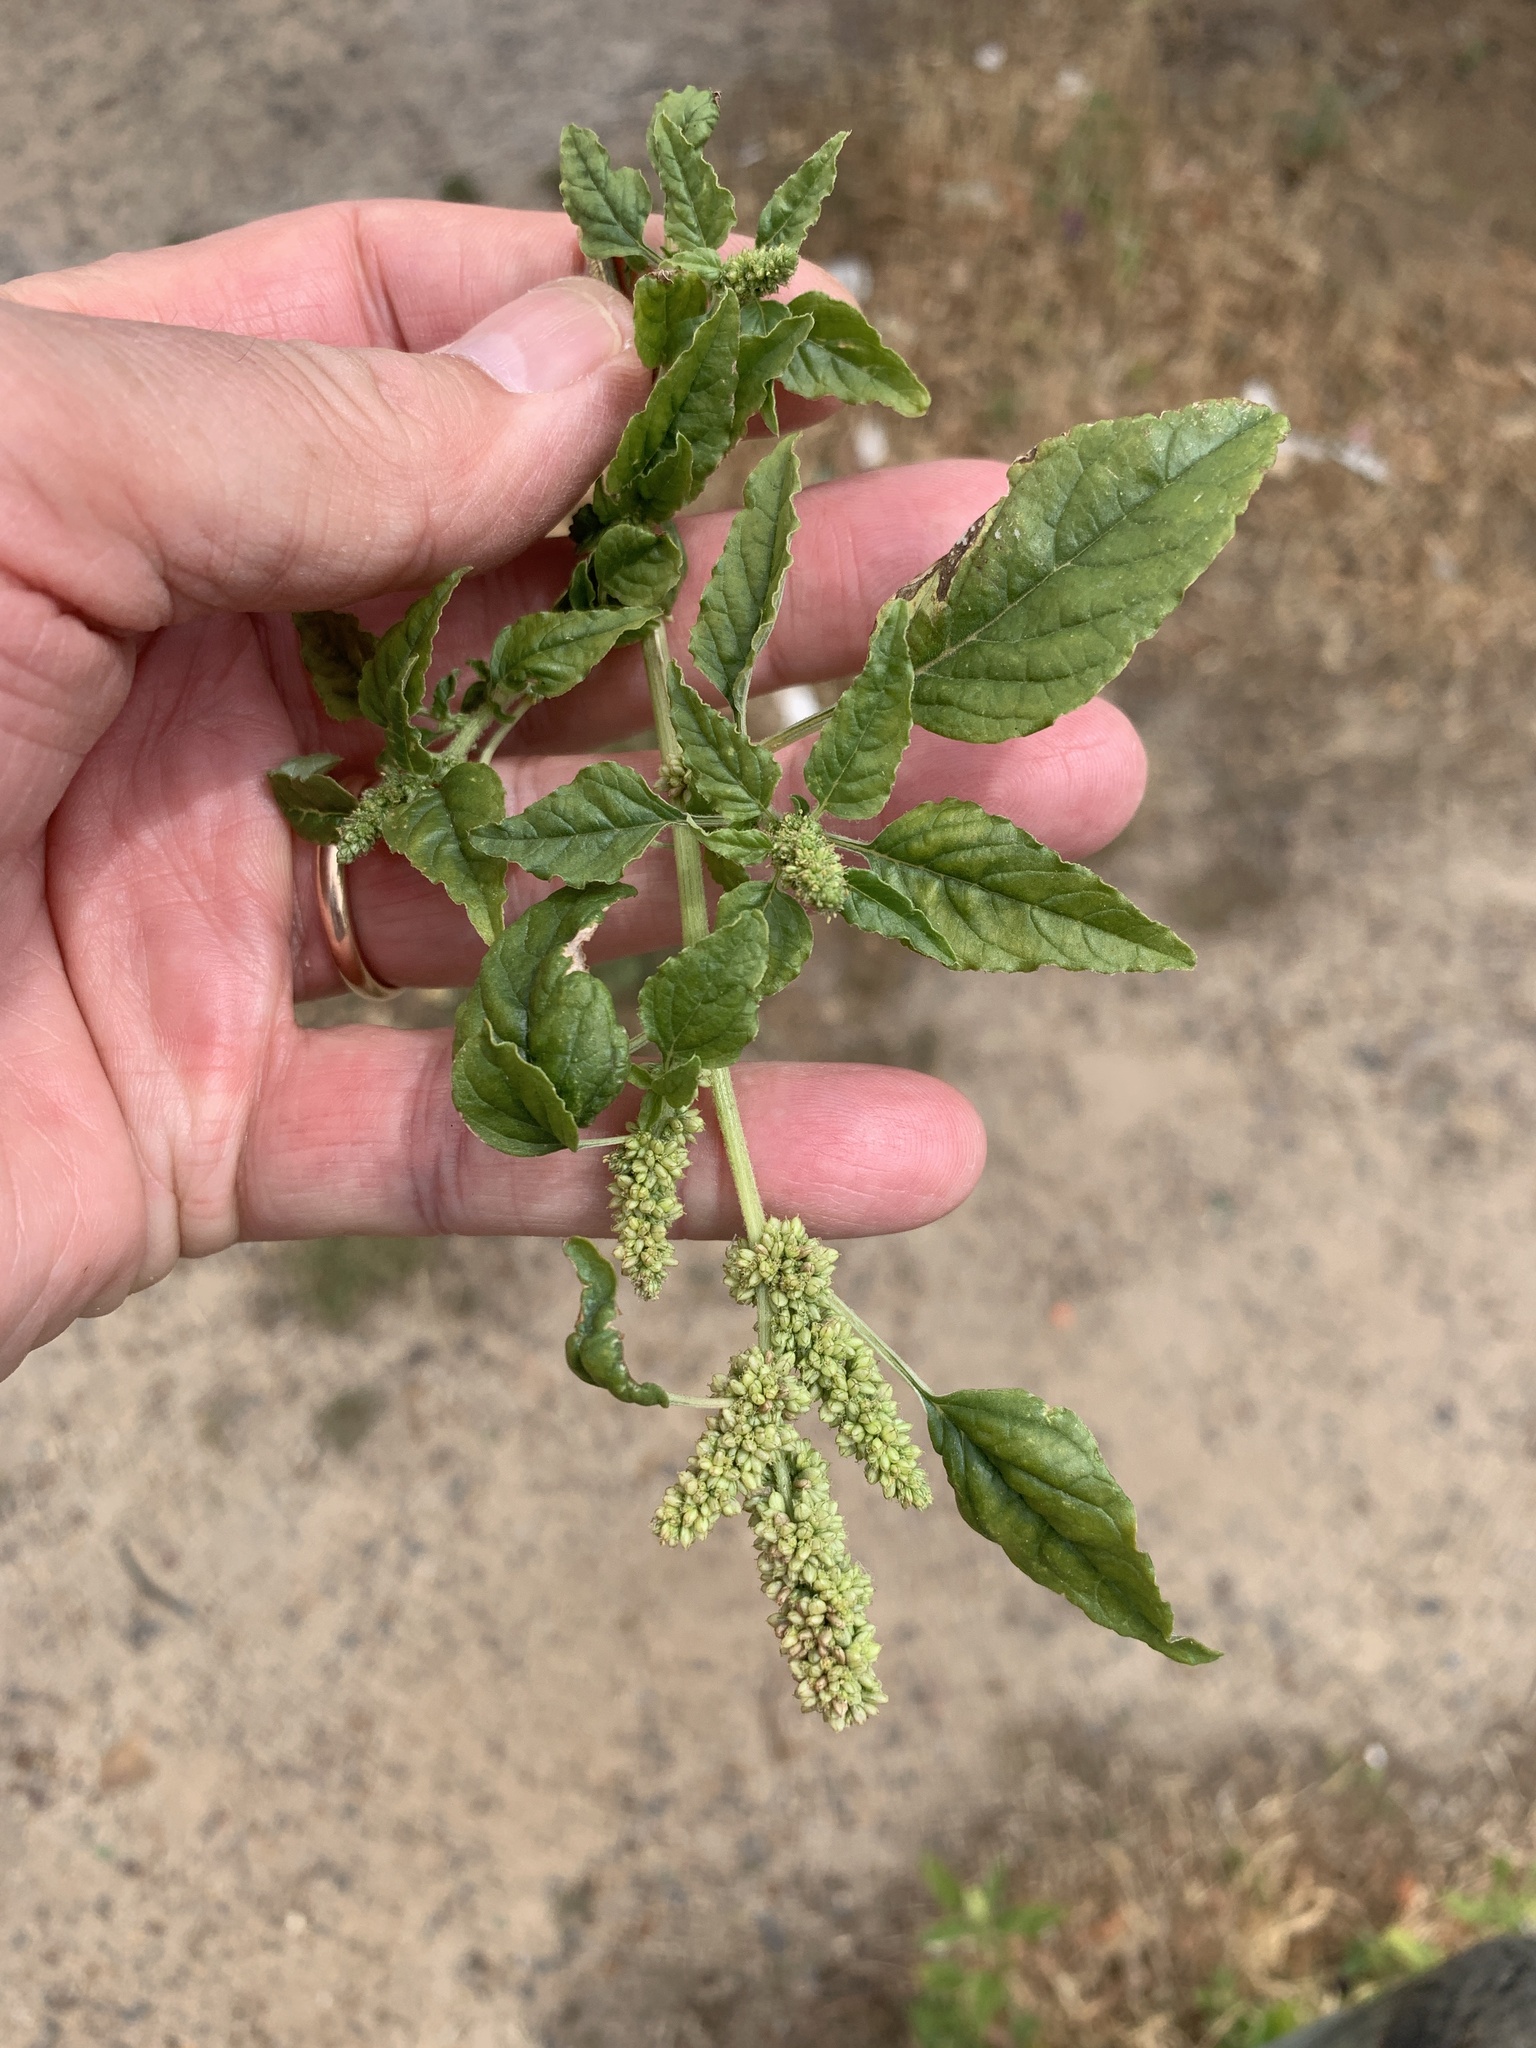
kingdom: Plantae
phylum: Tracheophyta
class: Magnoliopsida
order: Caryophyllales
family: Amaranthaceae
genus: Amaranthus
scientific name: Amaranthus deflexus
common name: Perennial pigweed
